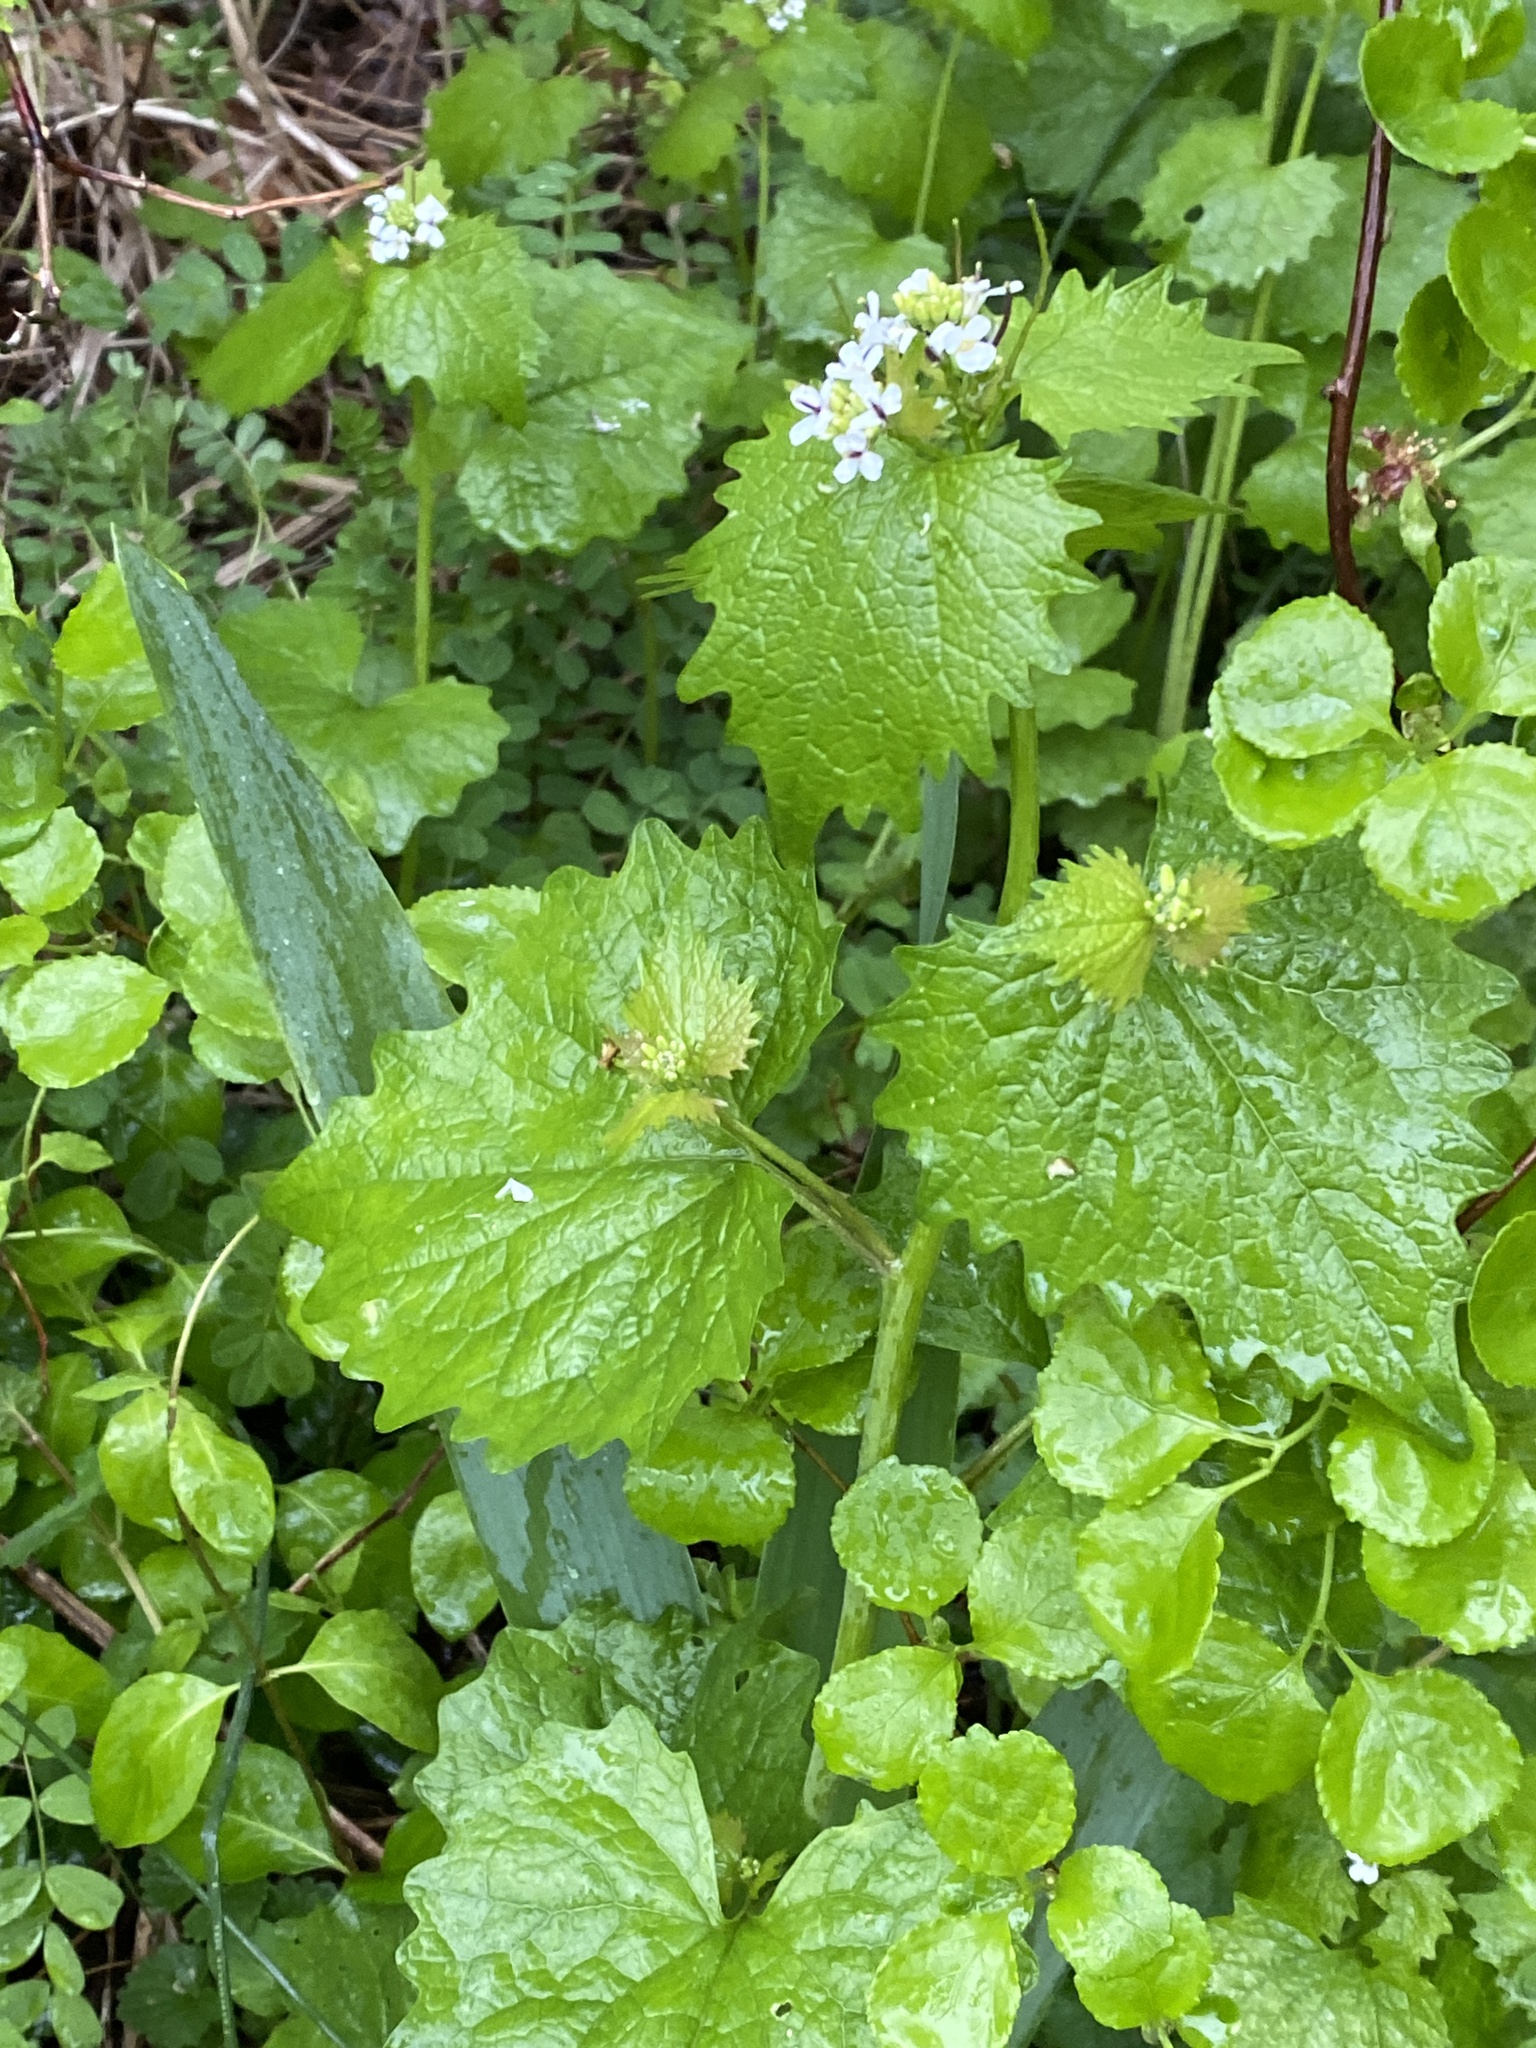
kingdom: Plantae
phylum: Tracheophyta
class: Magnoliopsida
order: Brassicales
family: Brassicaceae
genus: Alliaria
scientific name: Alliaria petiolata
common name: Garlic mustard
